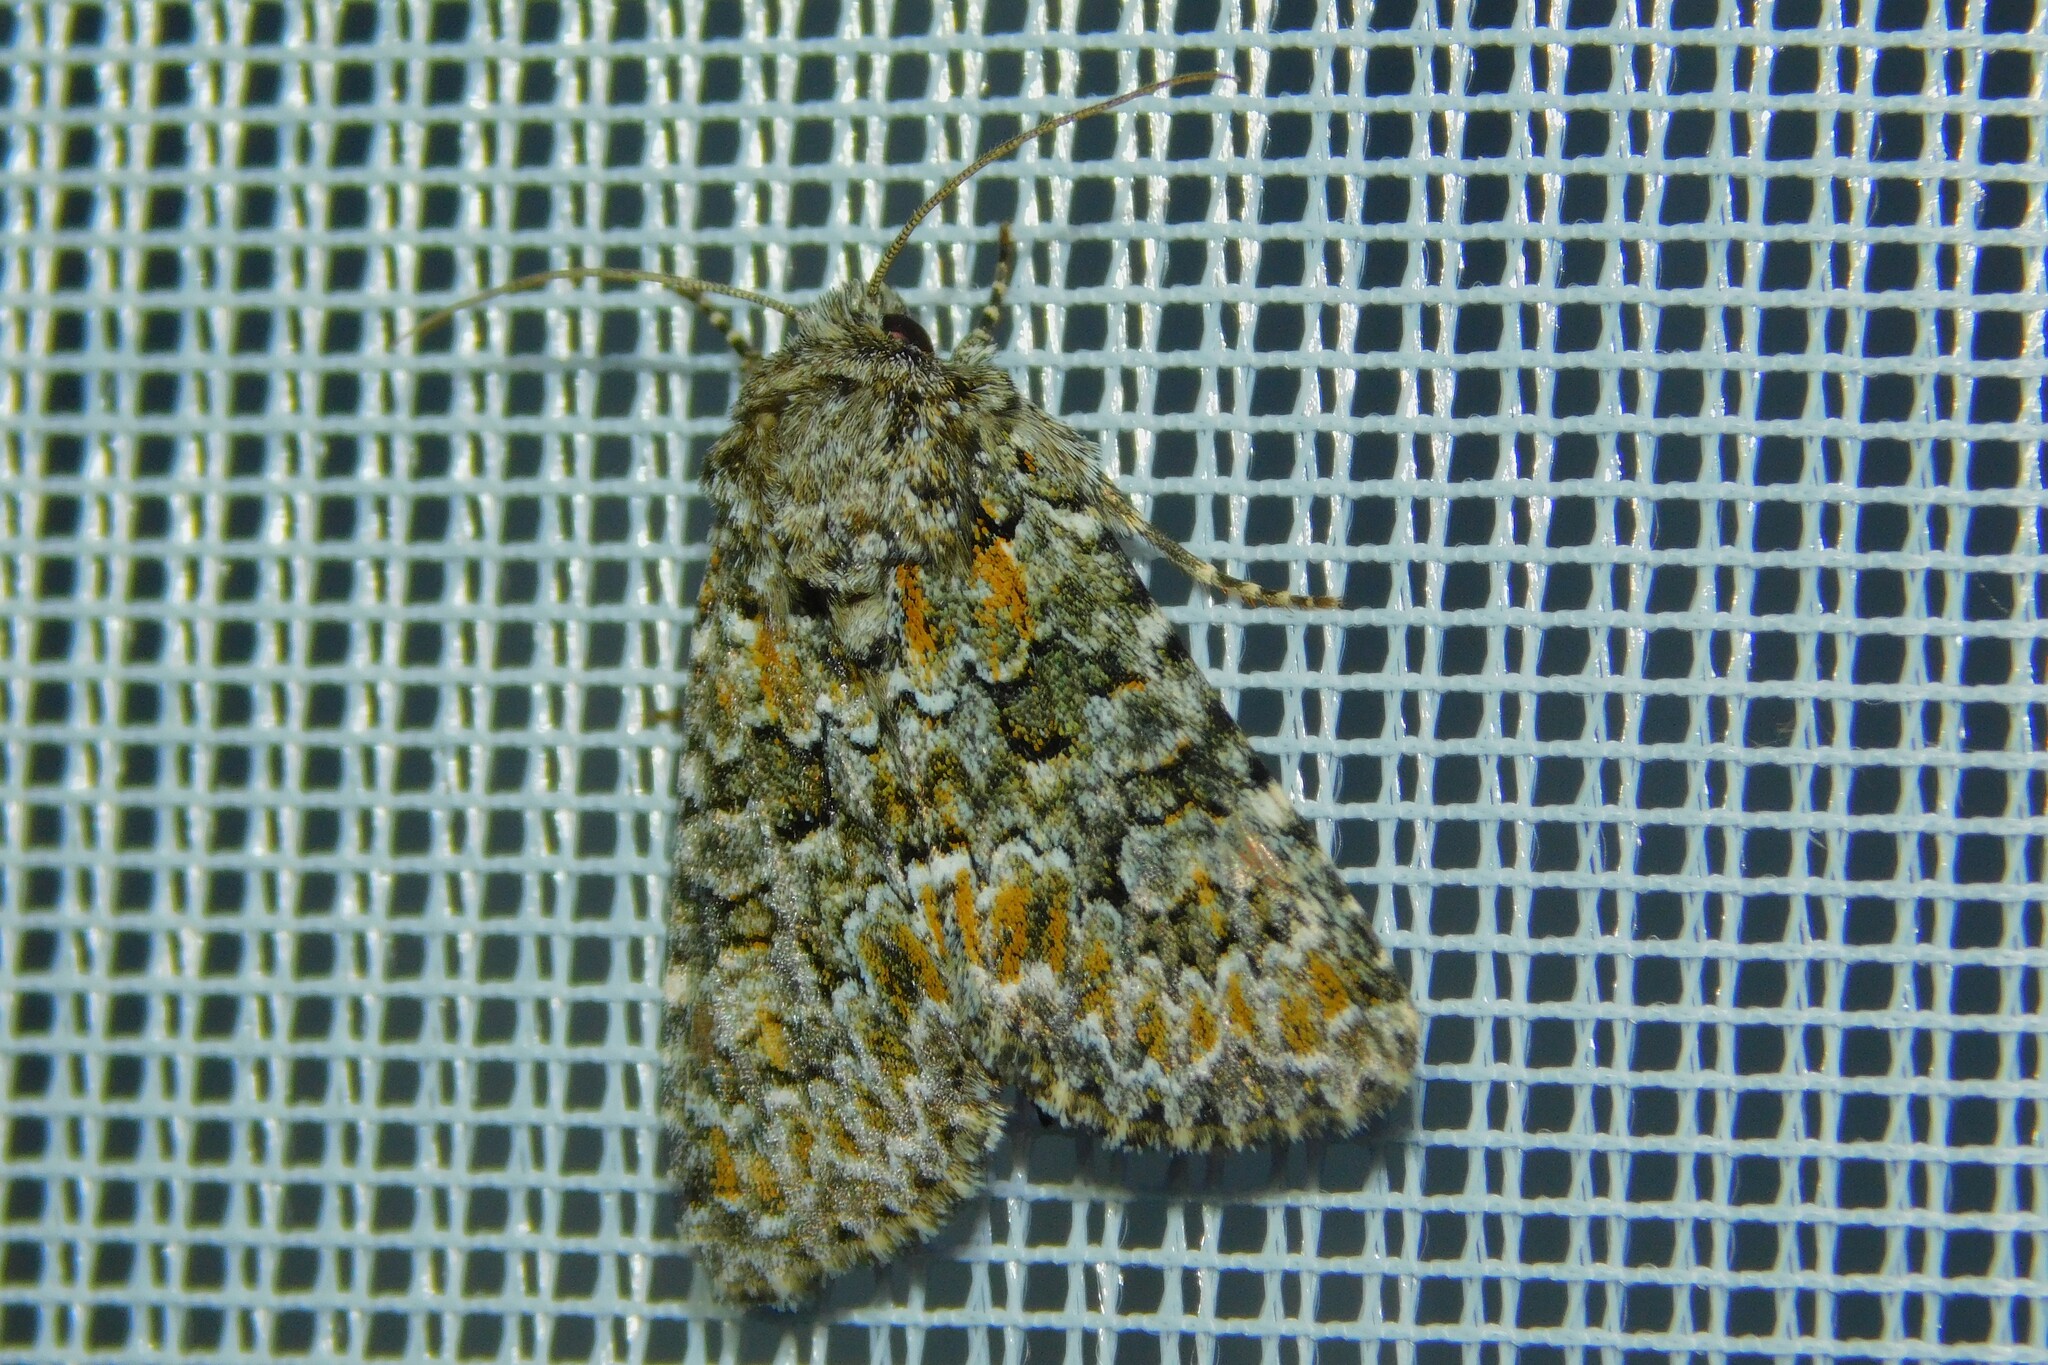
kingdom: Animalia
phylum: Arthropoda
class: Insecta
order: Lepidoptera
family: Noctuidae
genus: Hadena
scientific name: Hadena filograna
